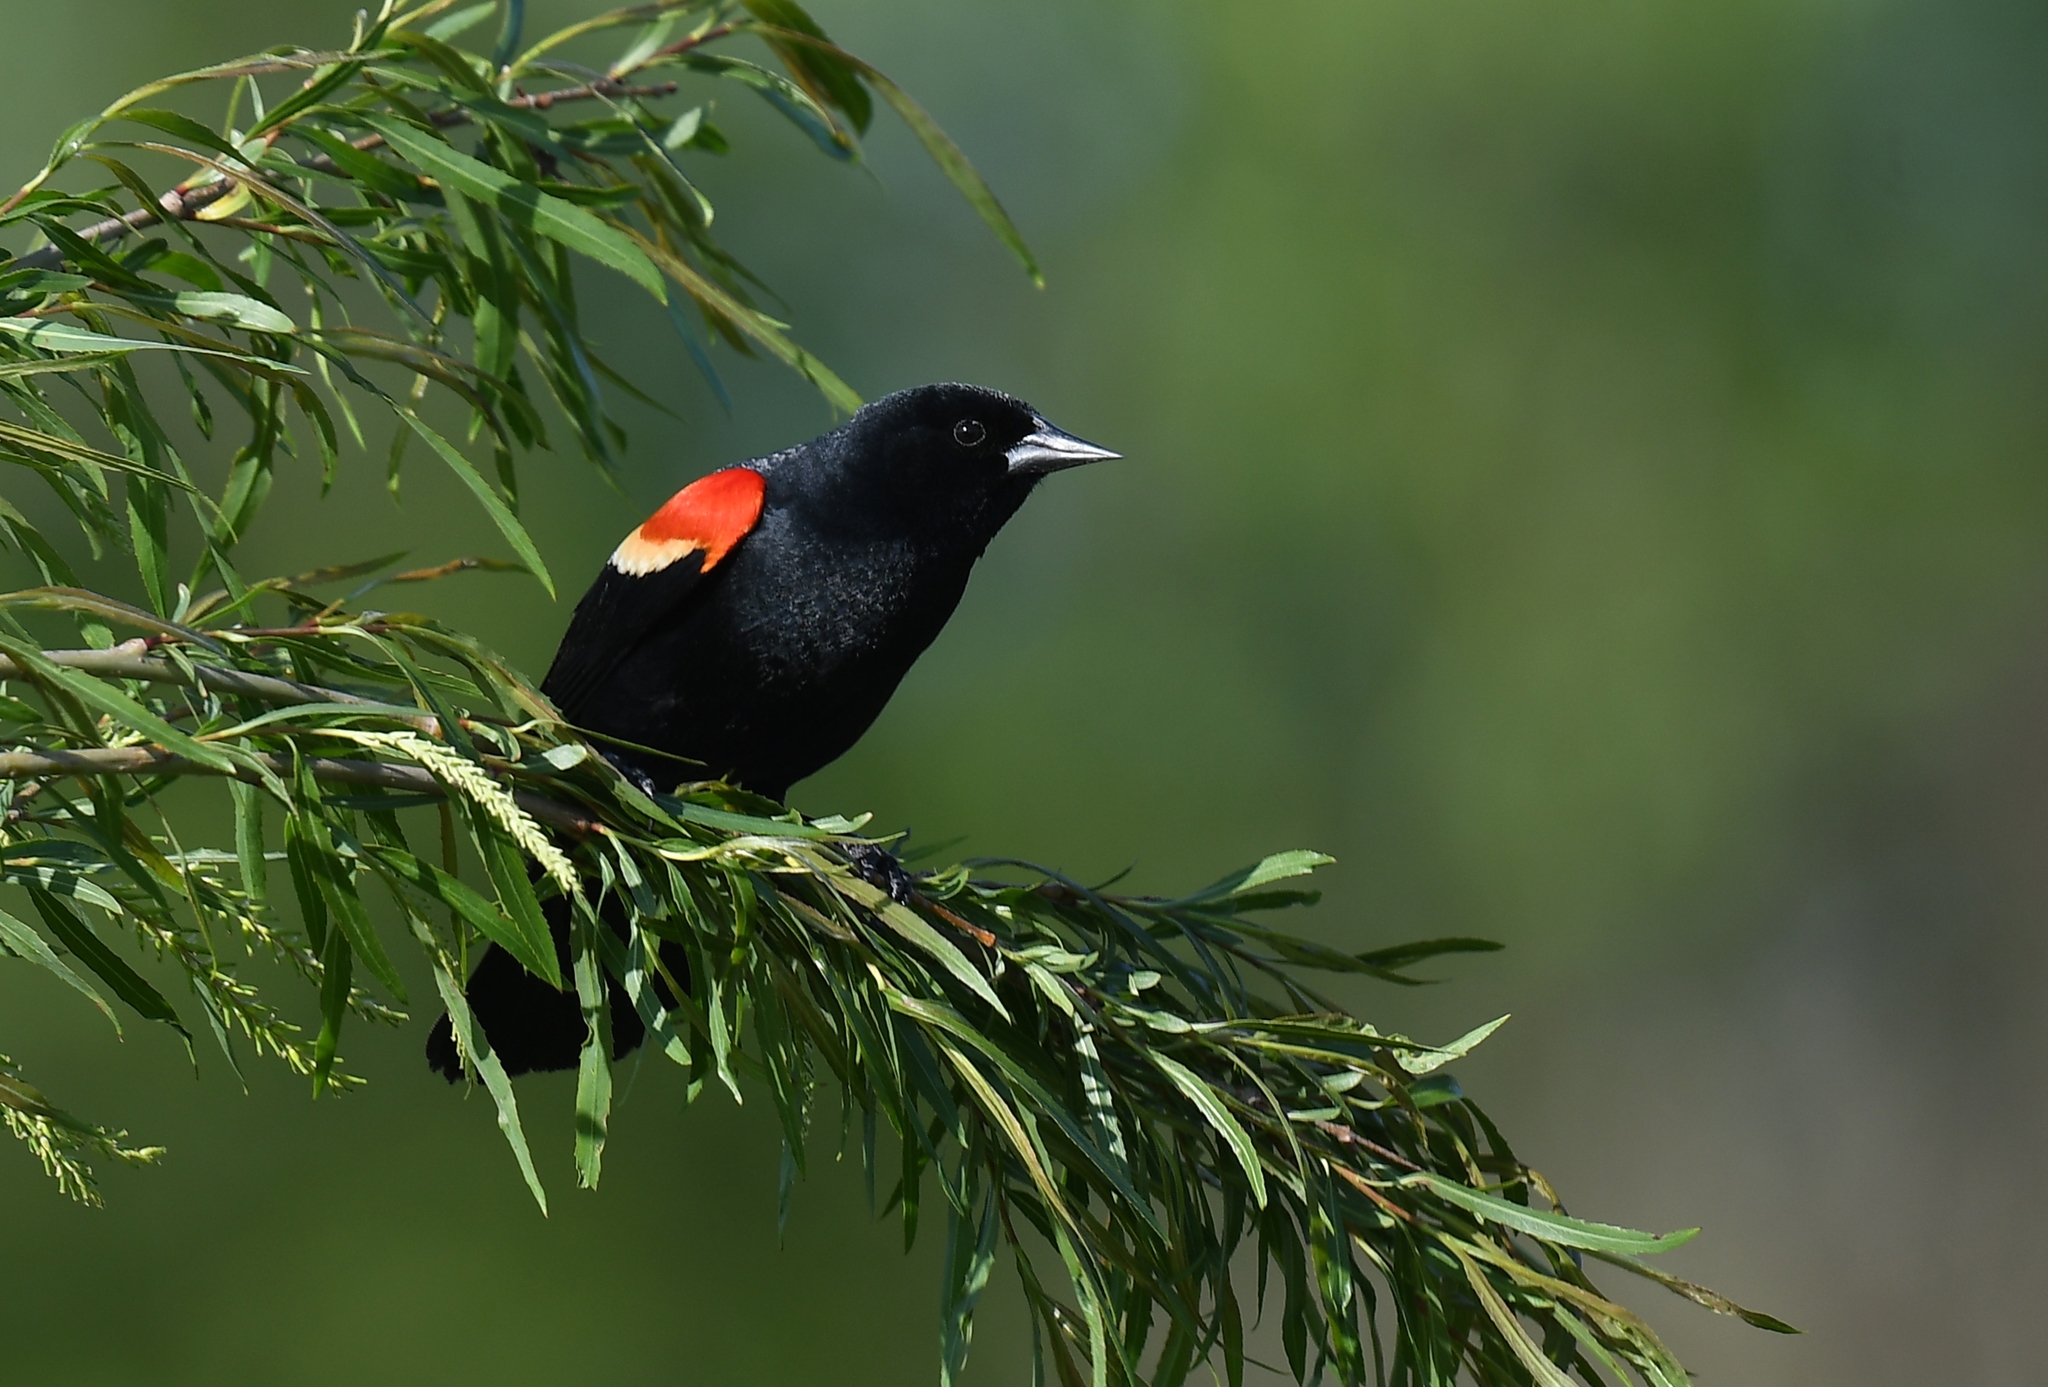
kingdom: Animalia
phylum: Chordata
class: Aves
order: Passeriformes
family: Icteridae
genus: Agelaius
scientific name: Agelaius phoeniceus
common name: Red-winged blackbird
